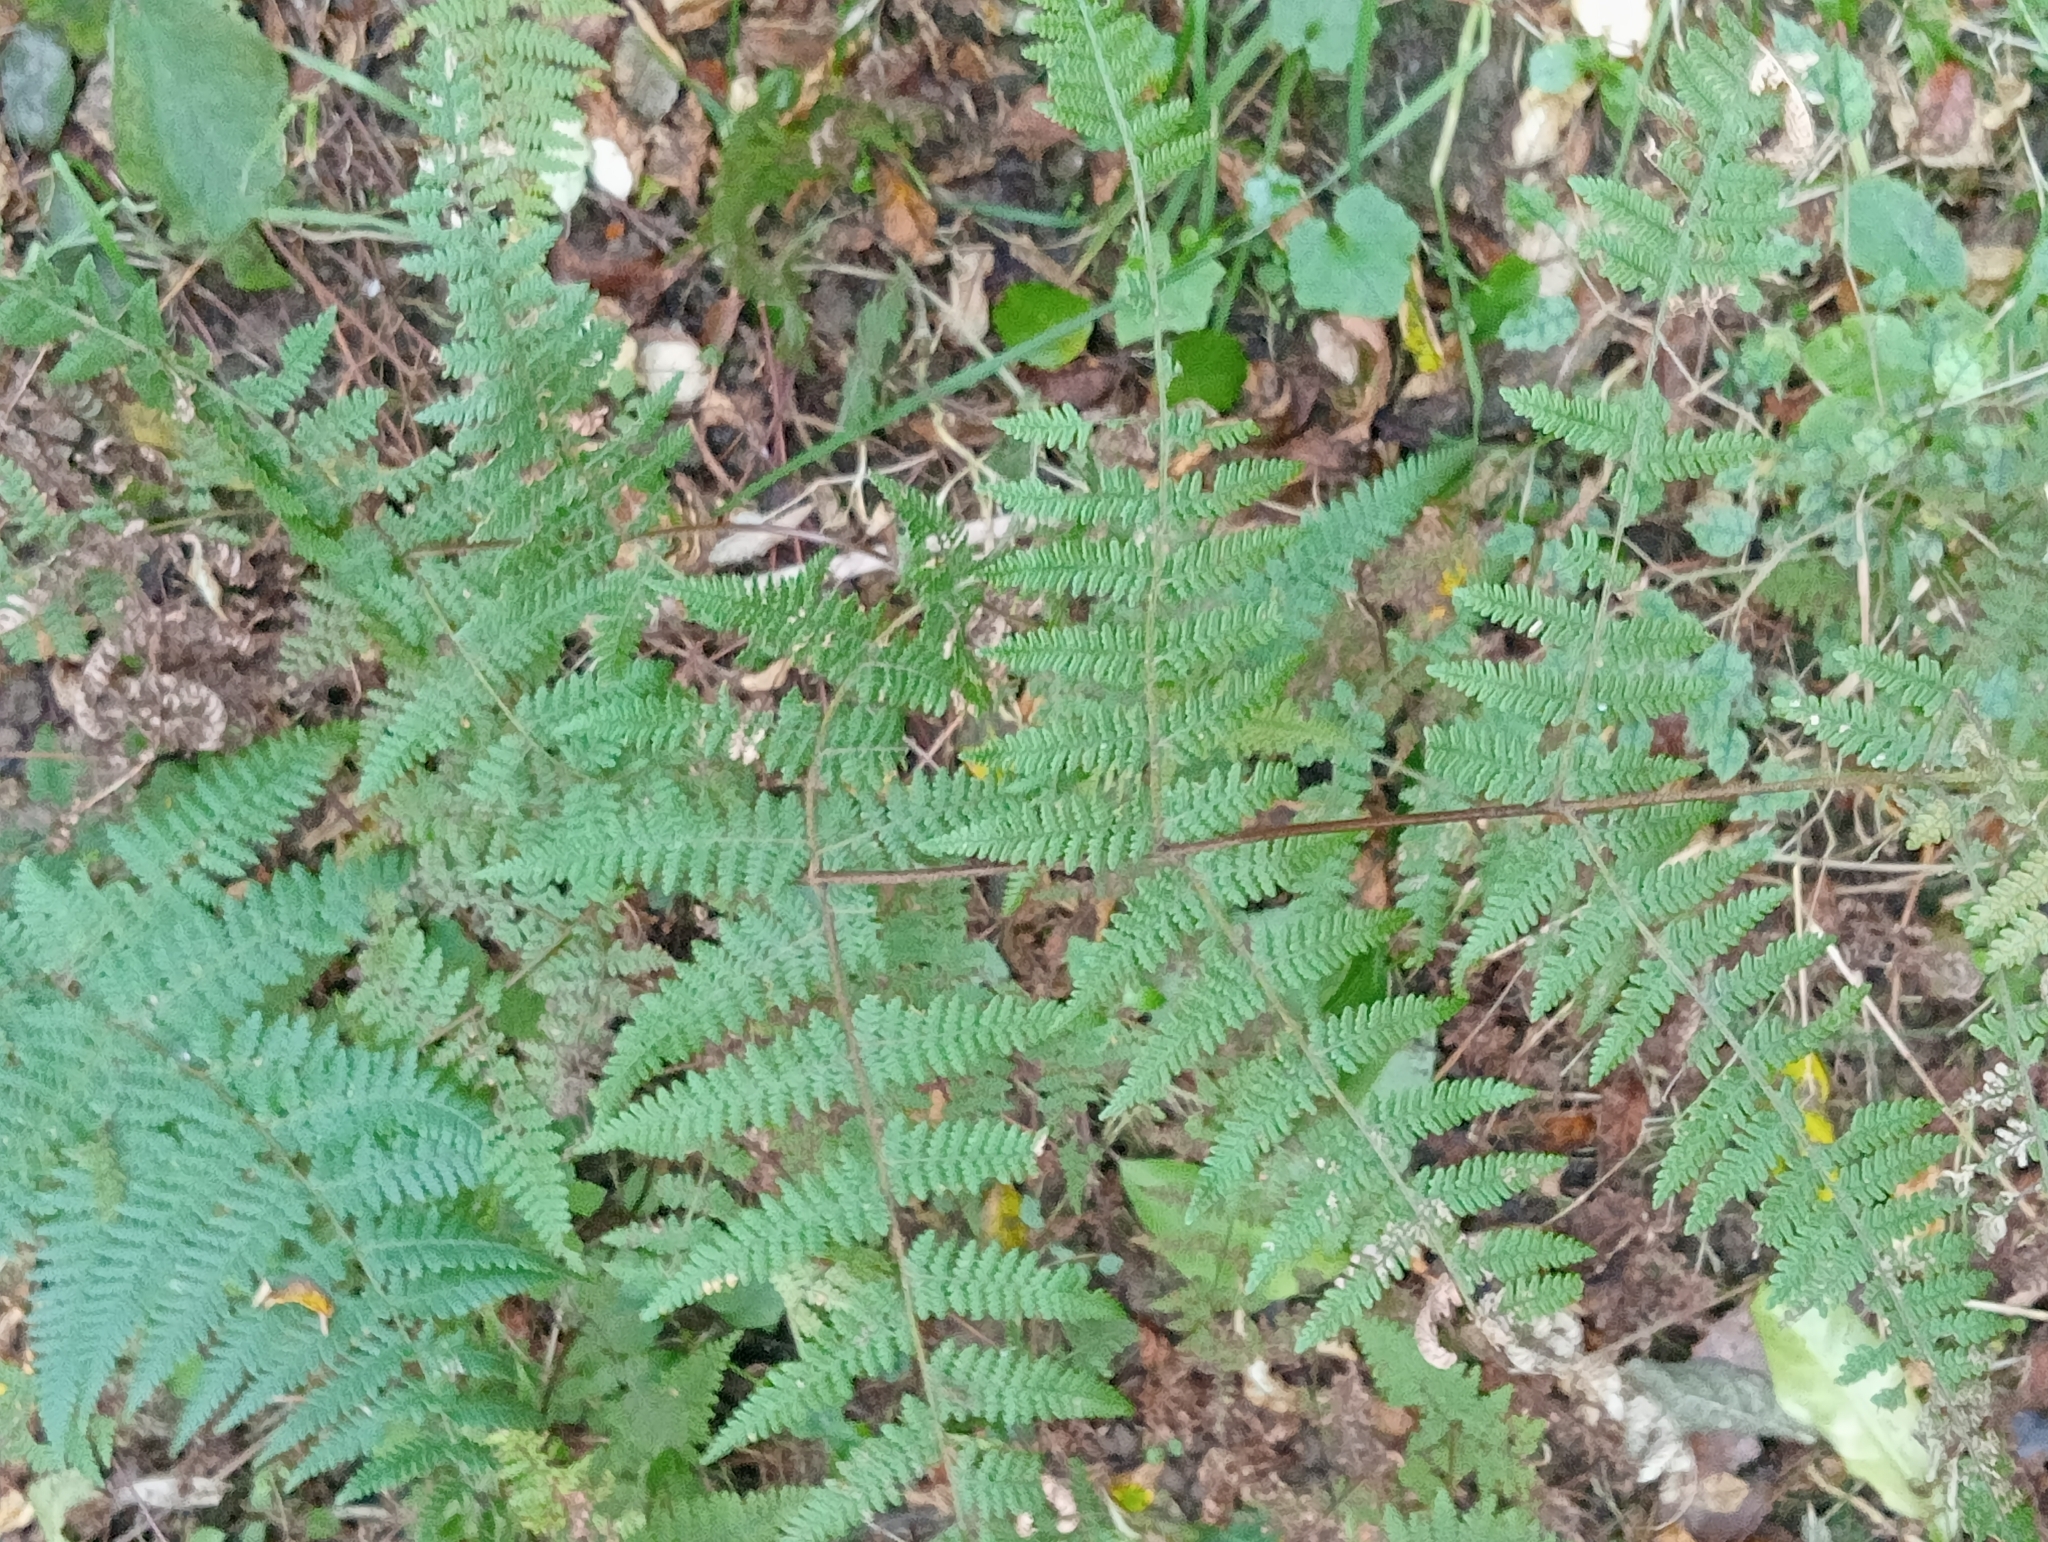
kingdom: Plantae
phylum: Tracheophyta
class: Polypodiopsida
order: Polypodiales
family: Dennstaedtiaceae
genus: Hypolepis
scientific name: Hypolepis ambigua
